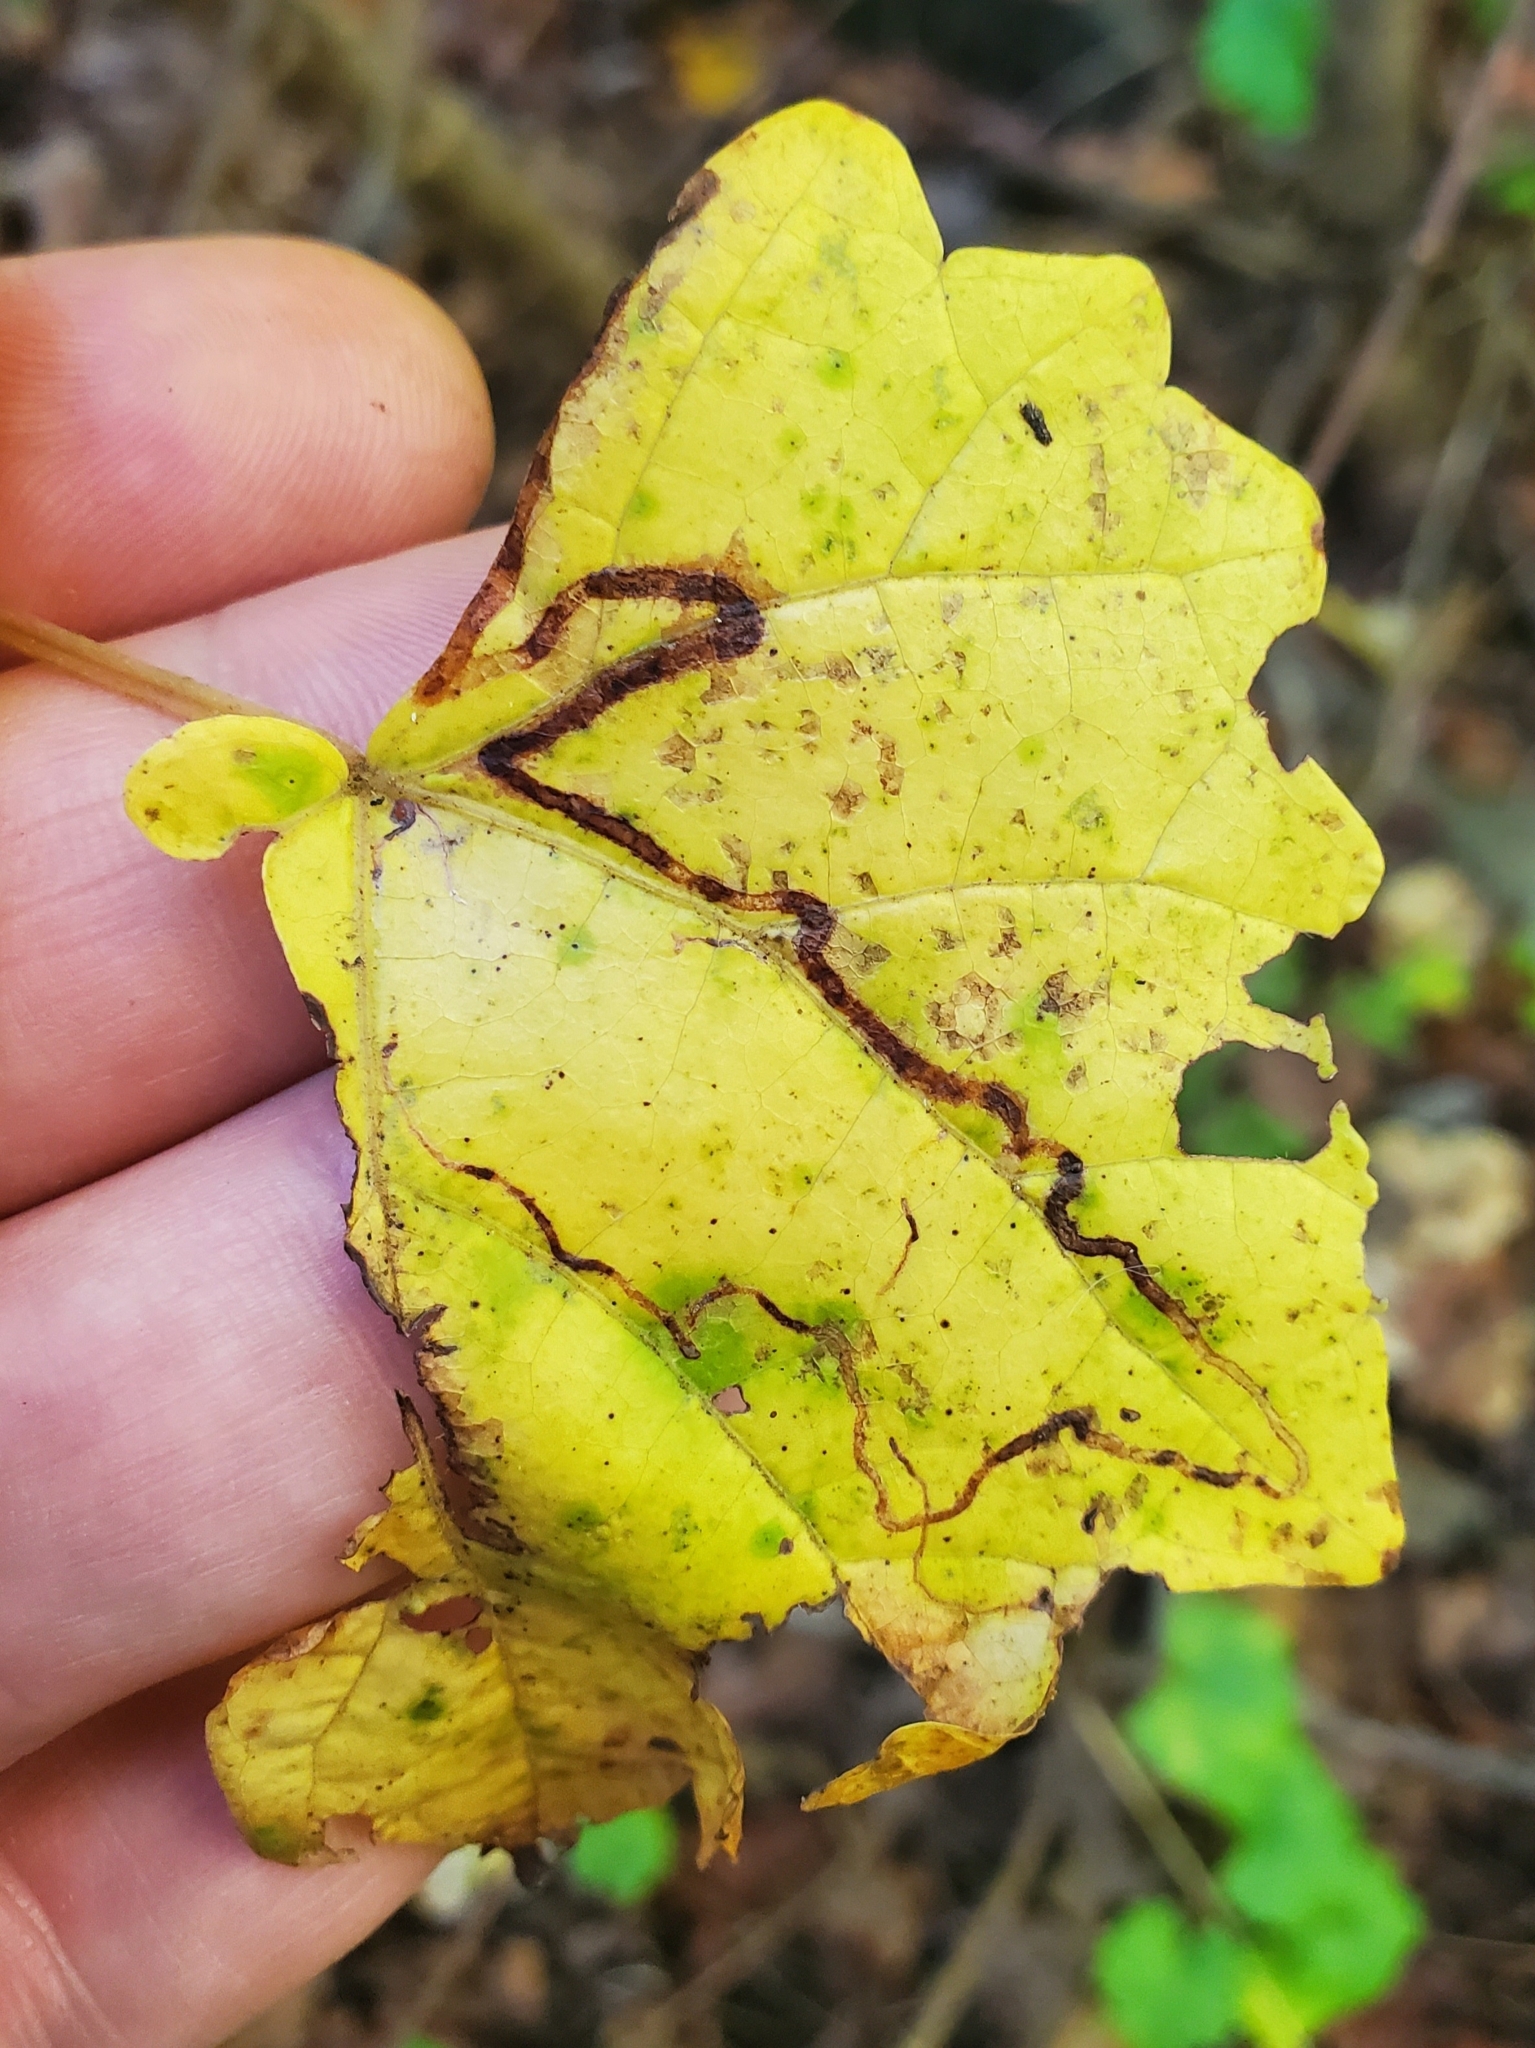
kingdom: Animalia
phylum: Arthropoda
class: Insecta
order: Lepidoptera
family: Gracillariidae
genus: Phyllocnistis
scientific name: Phyllocnistis vitifoliella
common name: Grape leaf-miner moth
